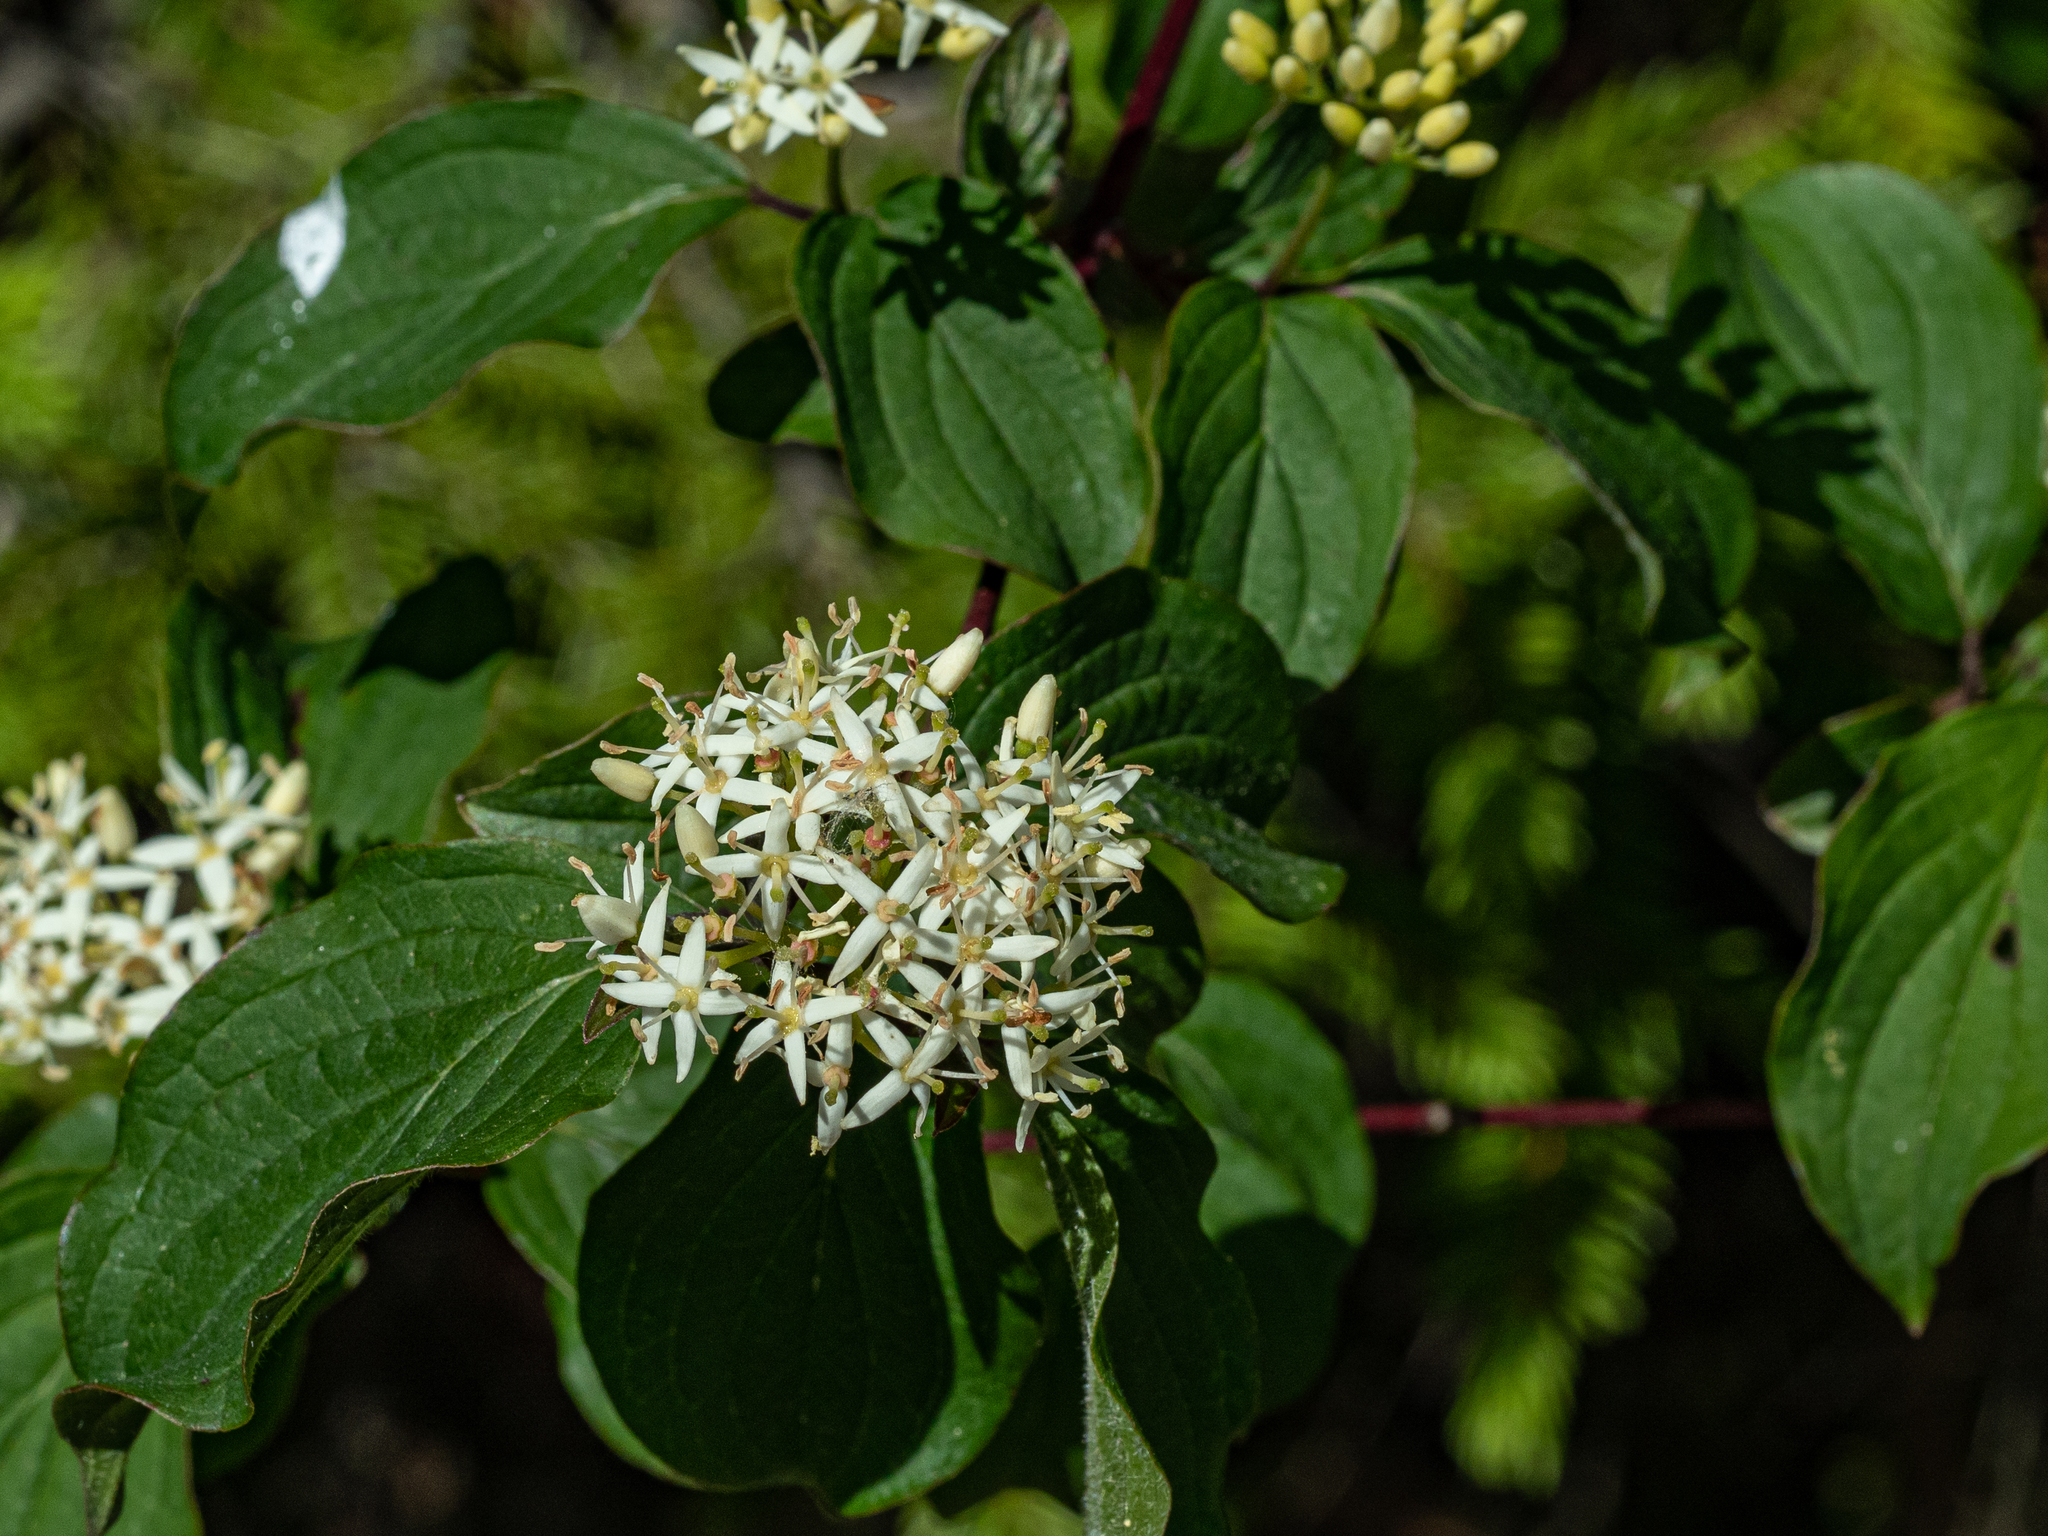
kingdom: Plantae
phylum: Tracheophyta
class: Magnoliopsida
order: Cornales
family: Cornaceae
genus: Cornus
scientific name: Cornus sanguinea
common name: Dogwood
